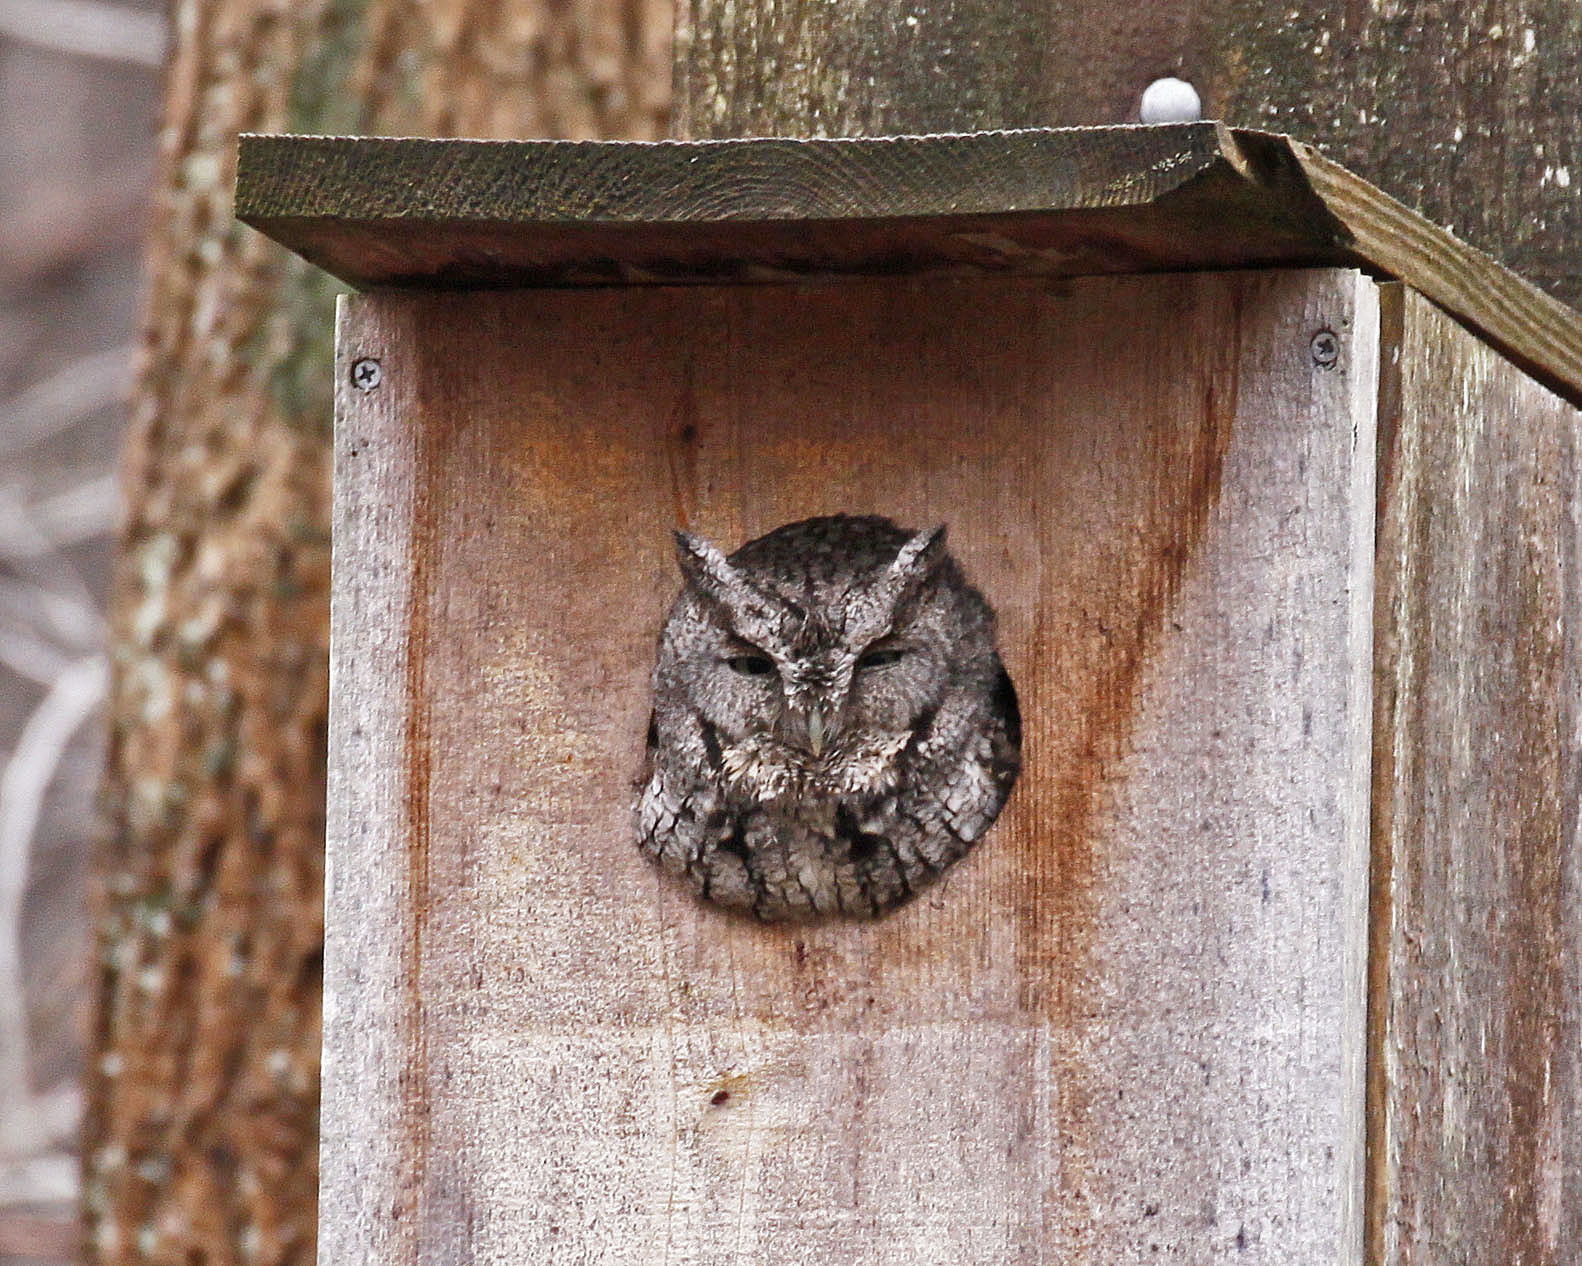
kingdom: Animalia
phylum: Chordata
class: Aves
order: Strigiformes
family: Strigidae
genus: Megascops
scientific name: Megascops asio
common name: Eastern screech-owl
